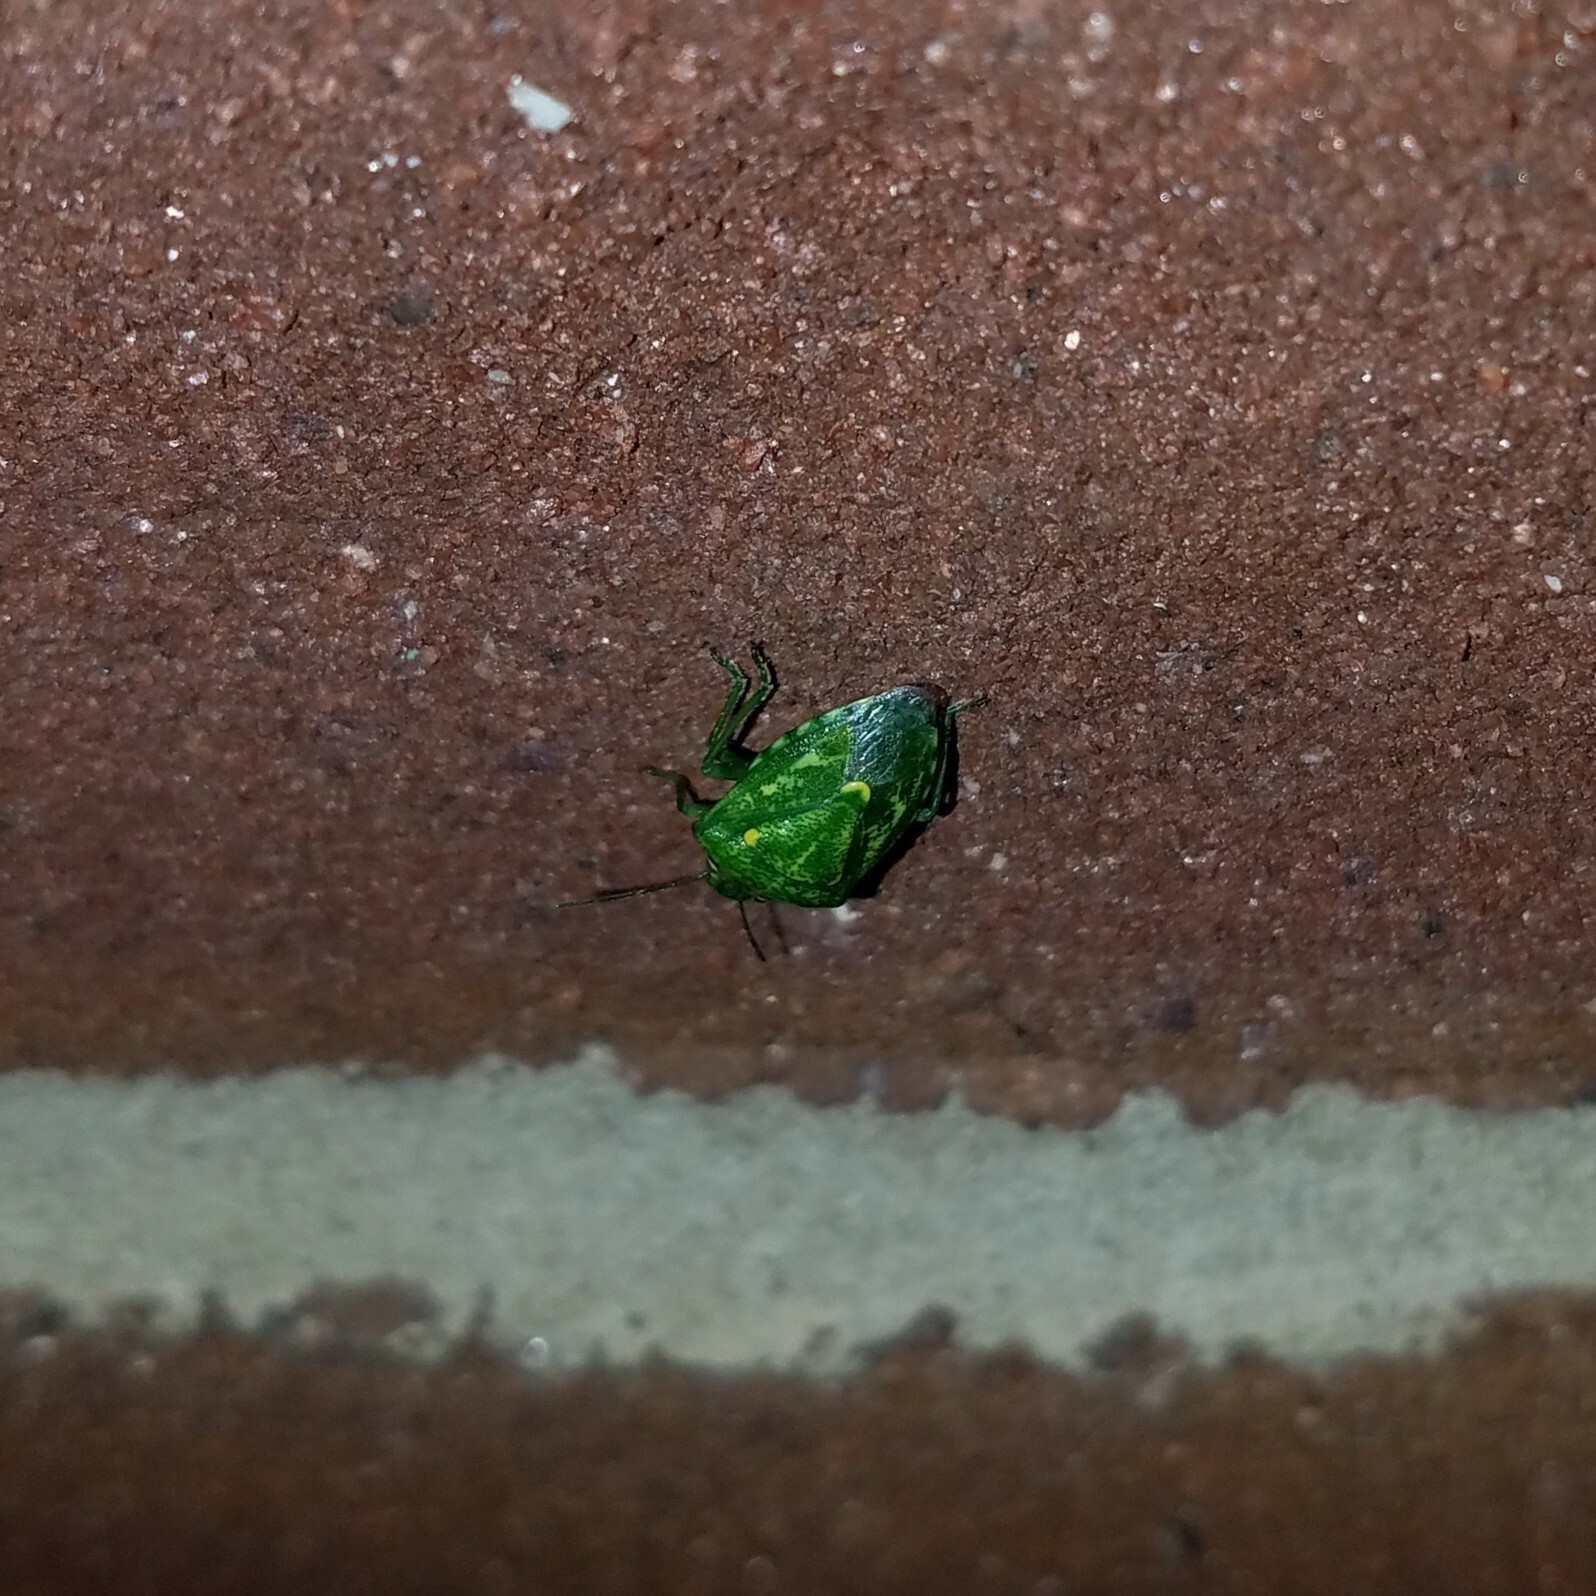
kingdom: Animalia
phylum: Arthropoda
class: Insecta
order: Hemiptera
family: Pentatomidae
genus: Banasa
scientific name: Banasa euchlora
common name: Cedar berry bug
